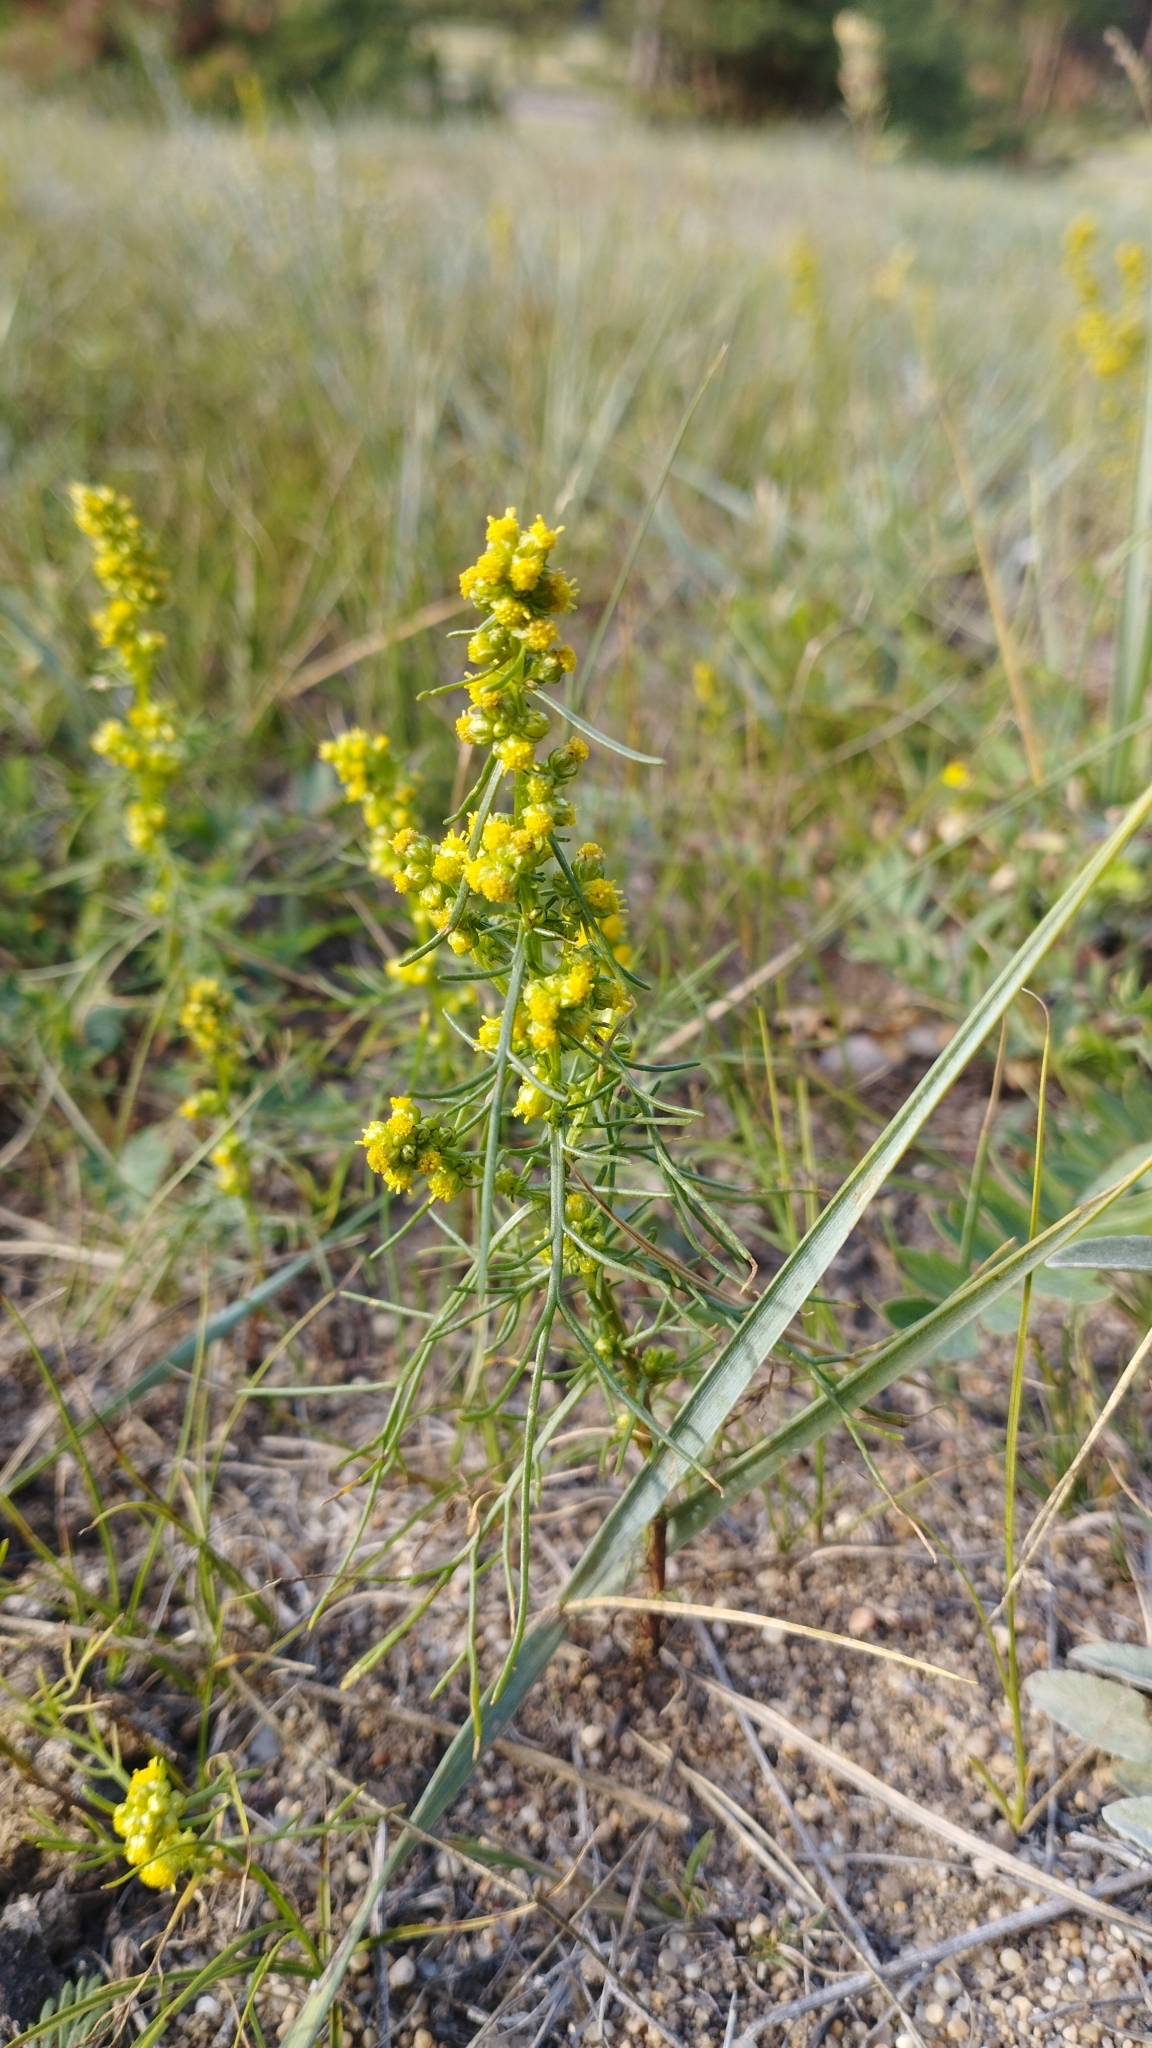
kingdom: Plantae
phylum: Tracheophyta
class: Magnoliopsida
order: Asterales
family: Asteraceae
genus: Artemisia
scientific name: Artemisia palustris
